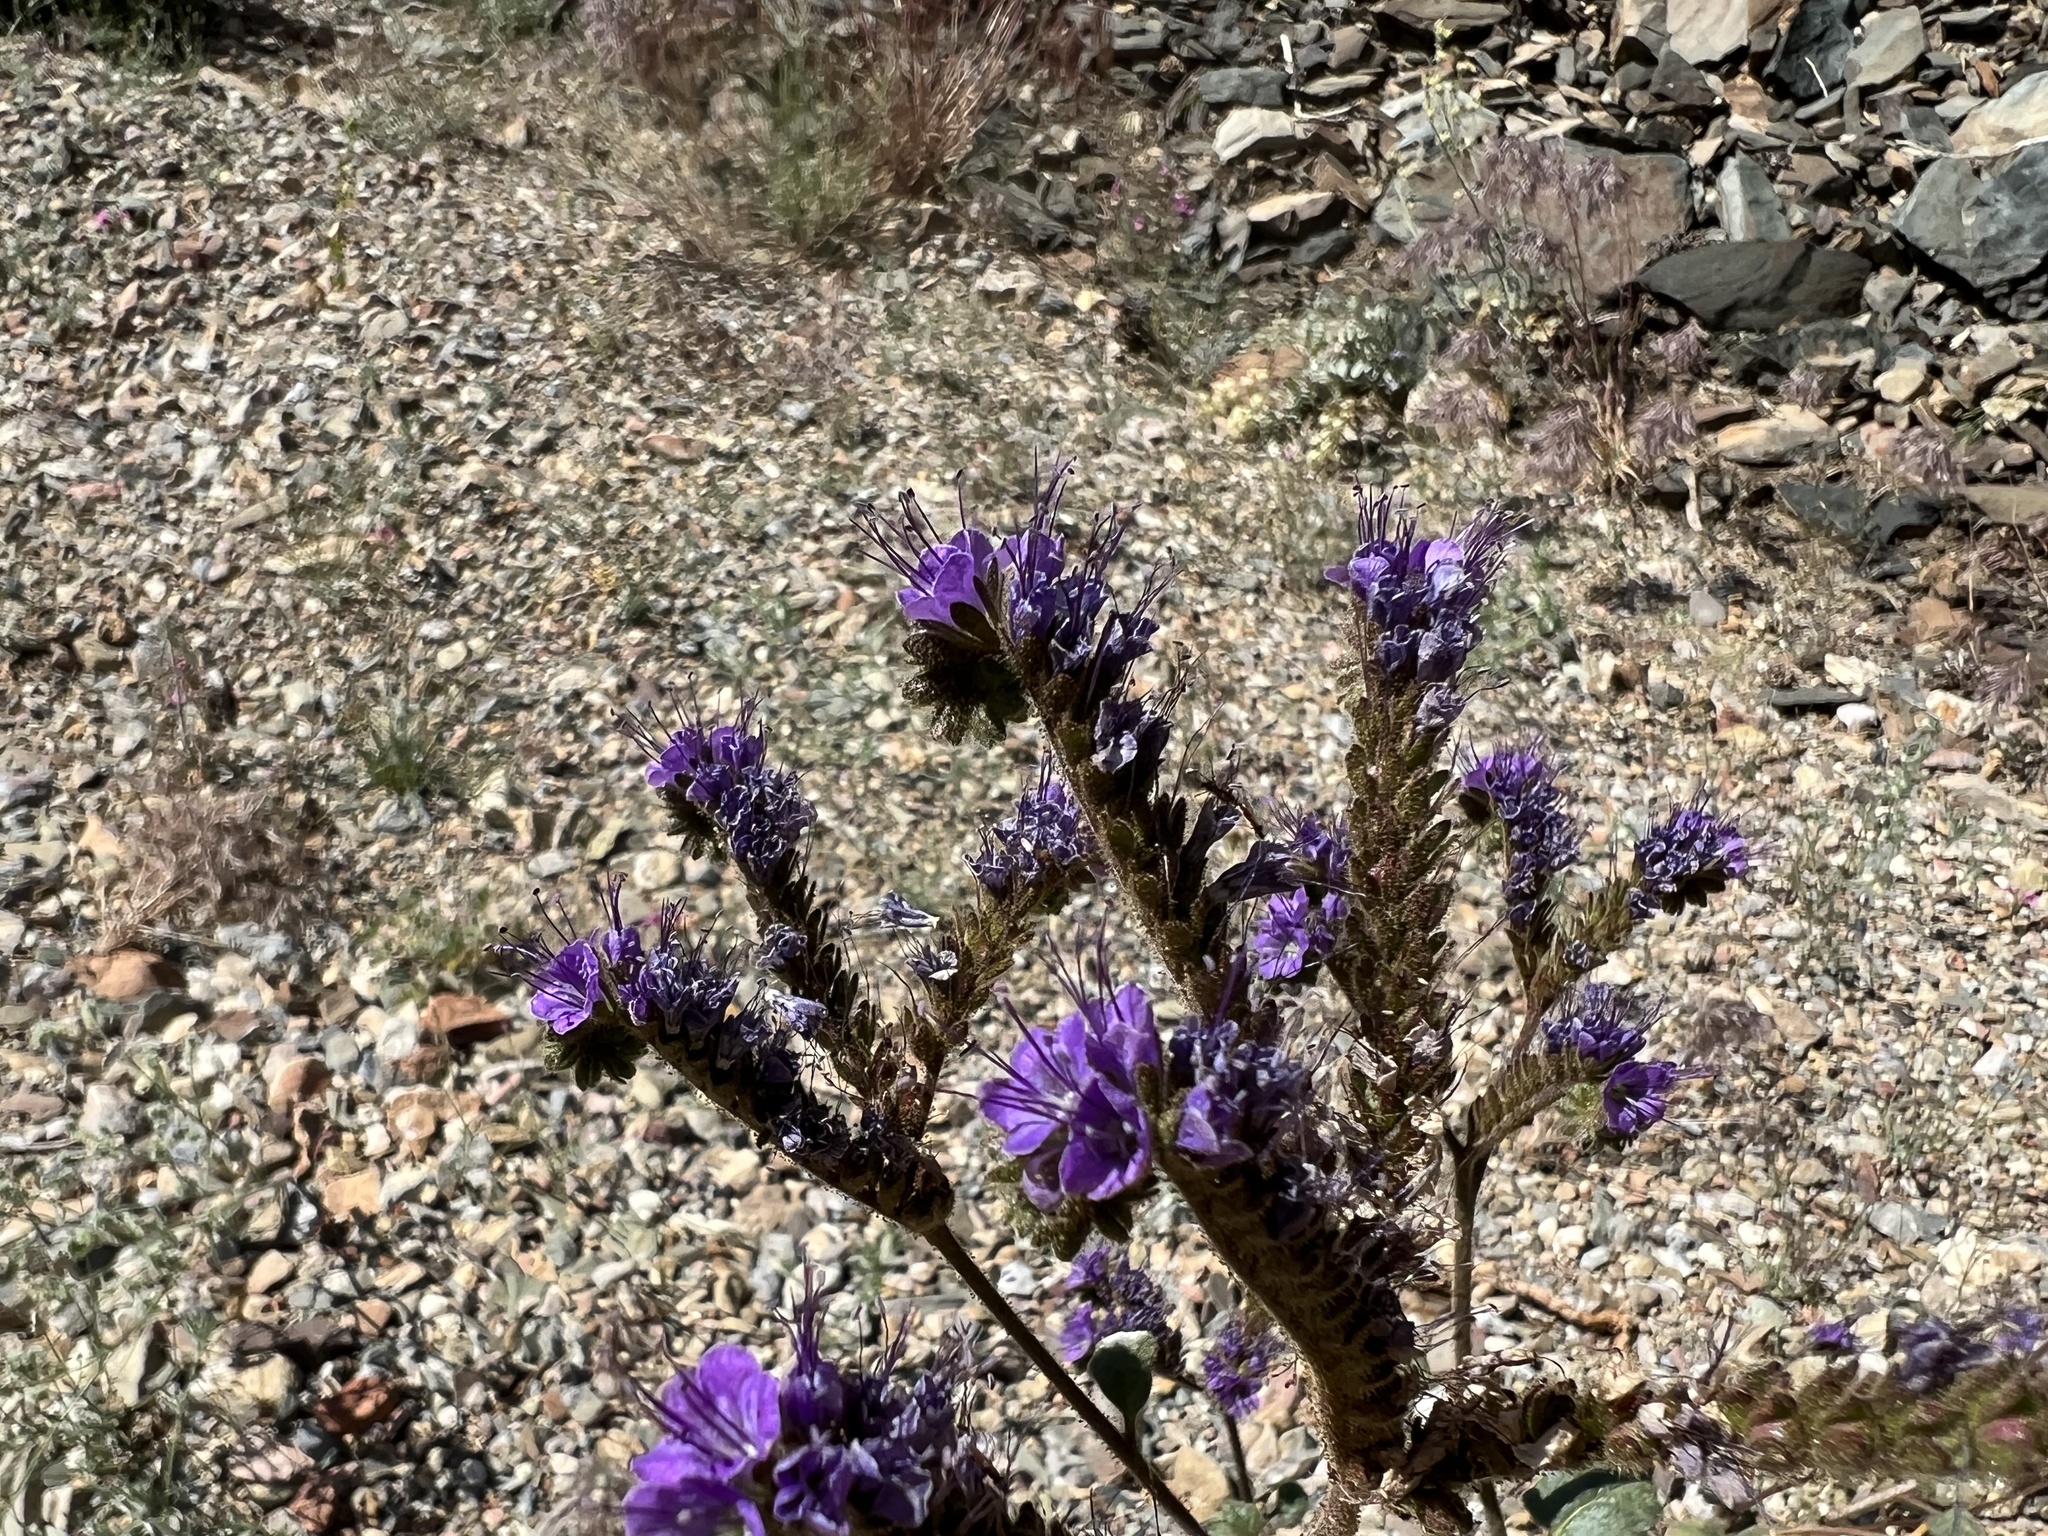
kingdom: Plantae
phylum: Tracheophyta
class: Magnoliopsida
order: Boraginales
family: Hydrophyllaceae
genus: Phacelia
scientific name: Phacelia crenulata
